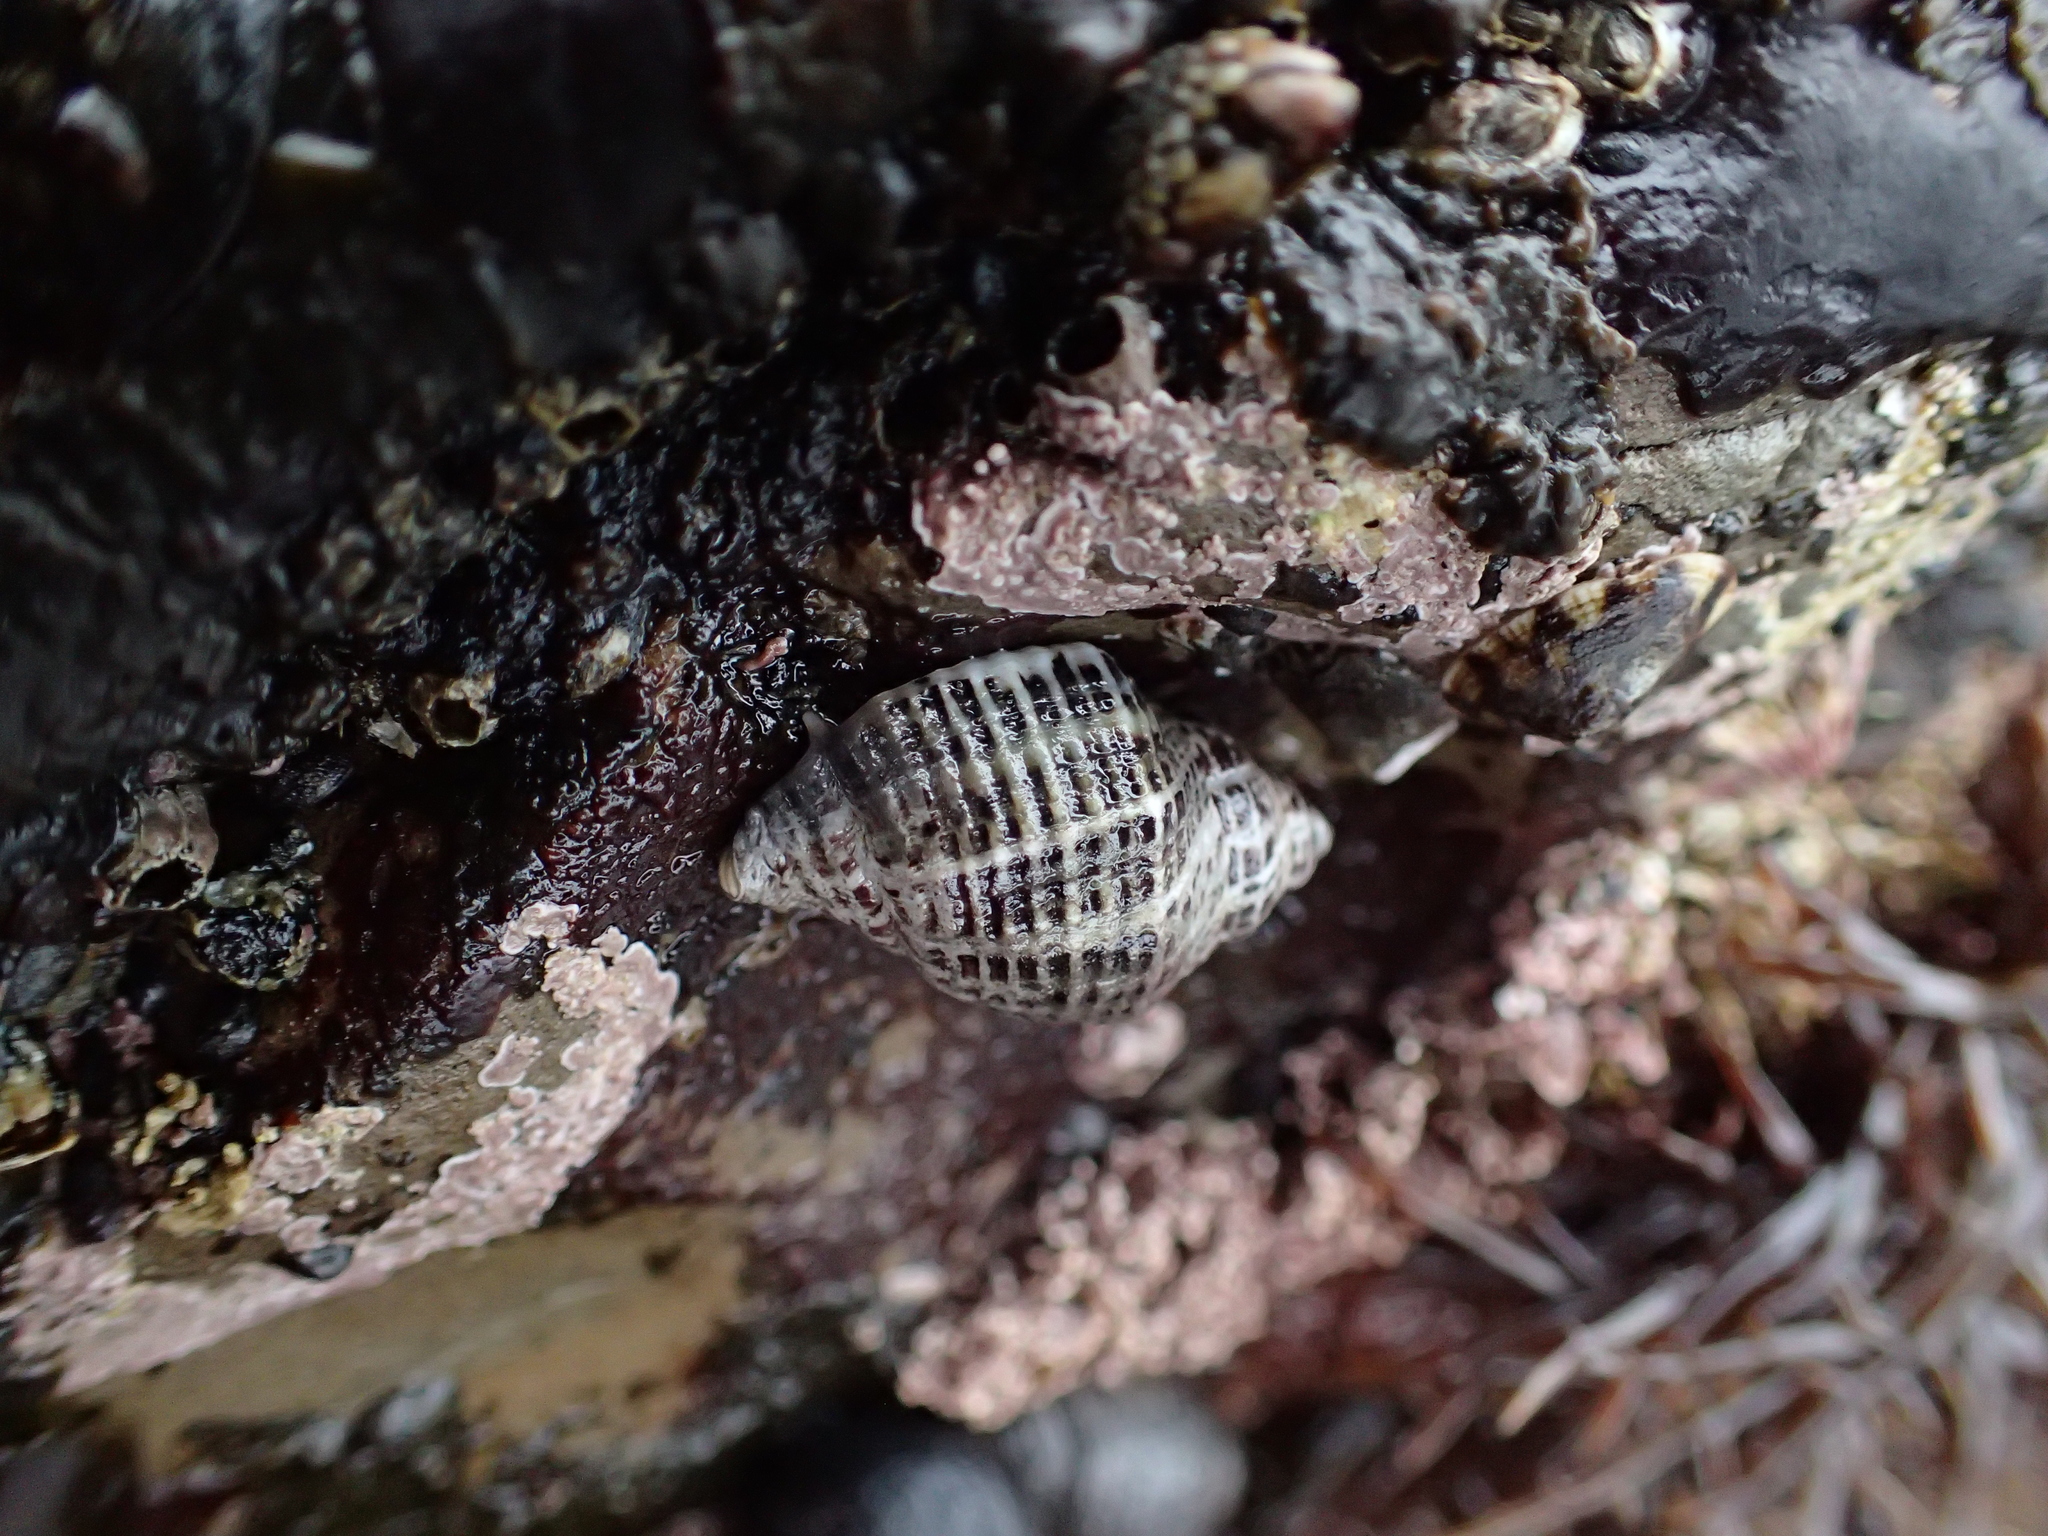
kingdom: Animalia
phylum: Mollusca
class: Gastropoda
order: Neogastropoda
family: Muricidae
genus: Acanthinucella
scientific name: Acanthinucella spirata
